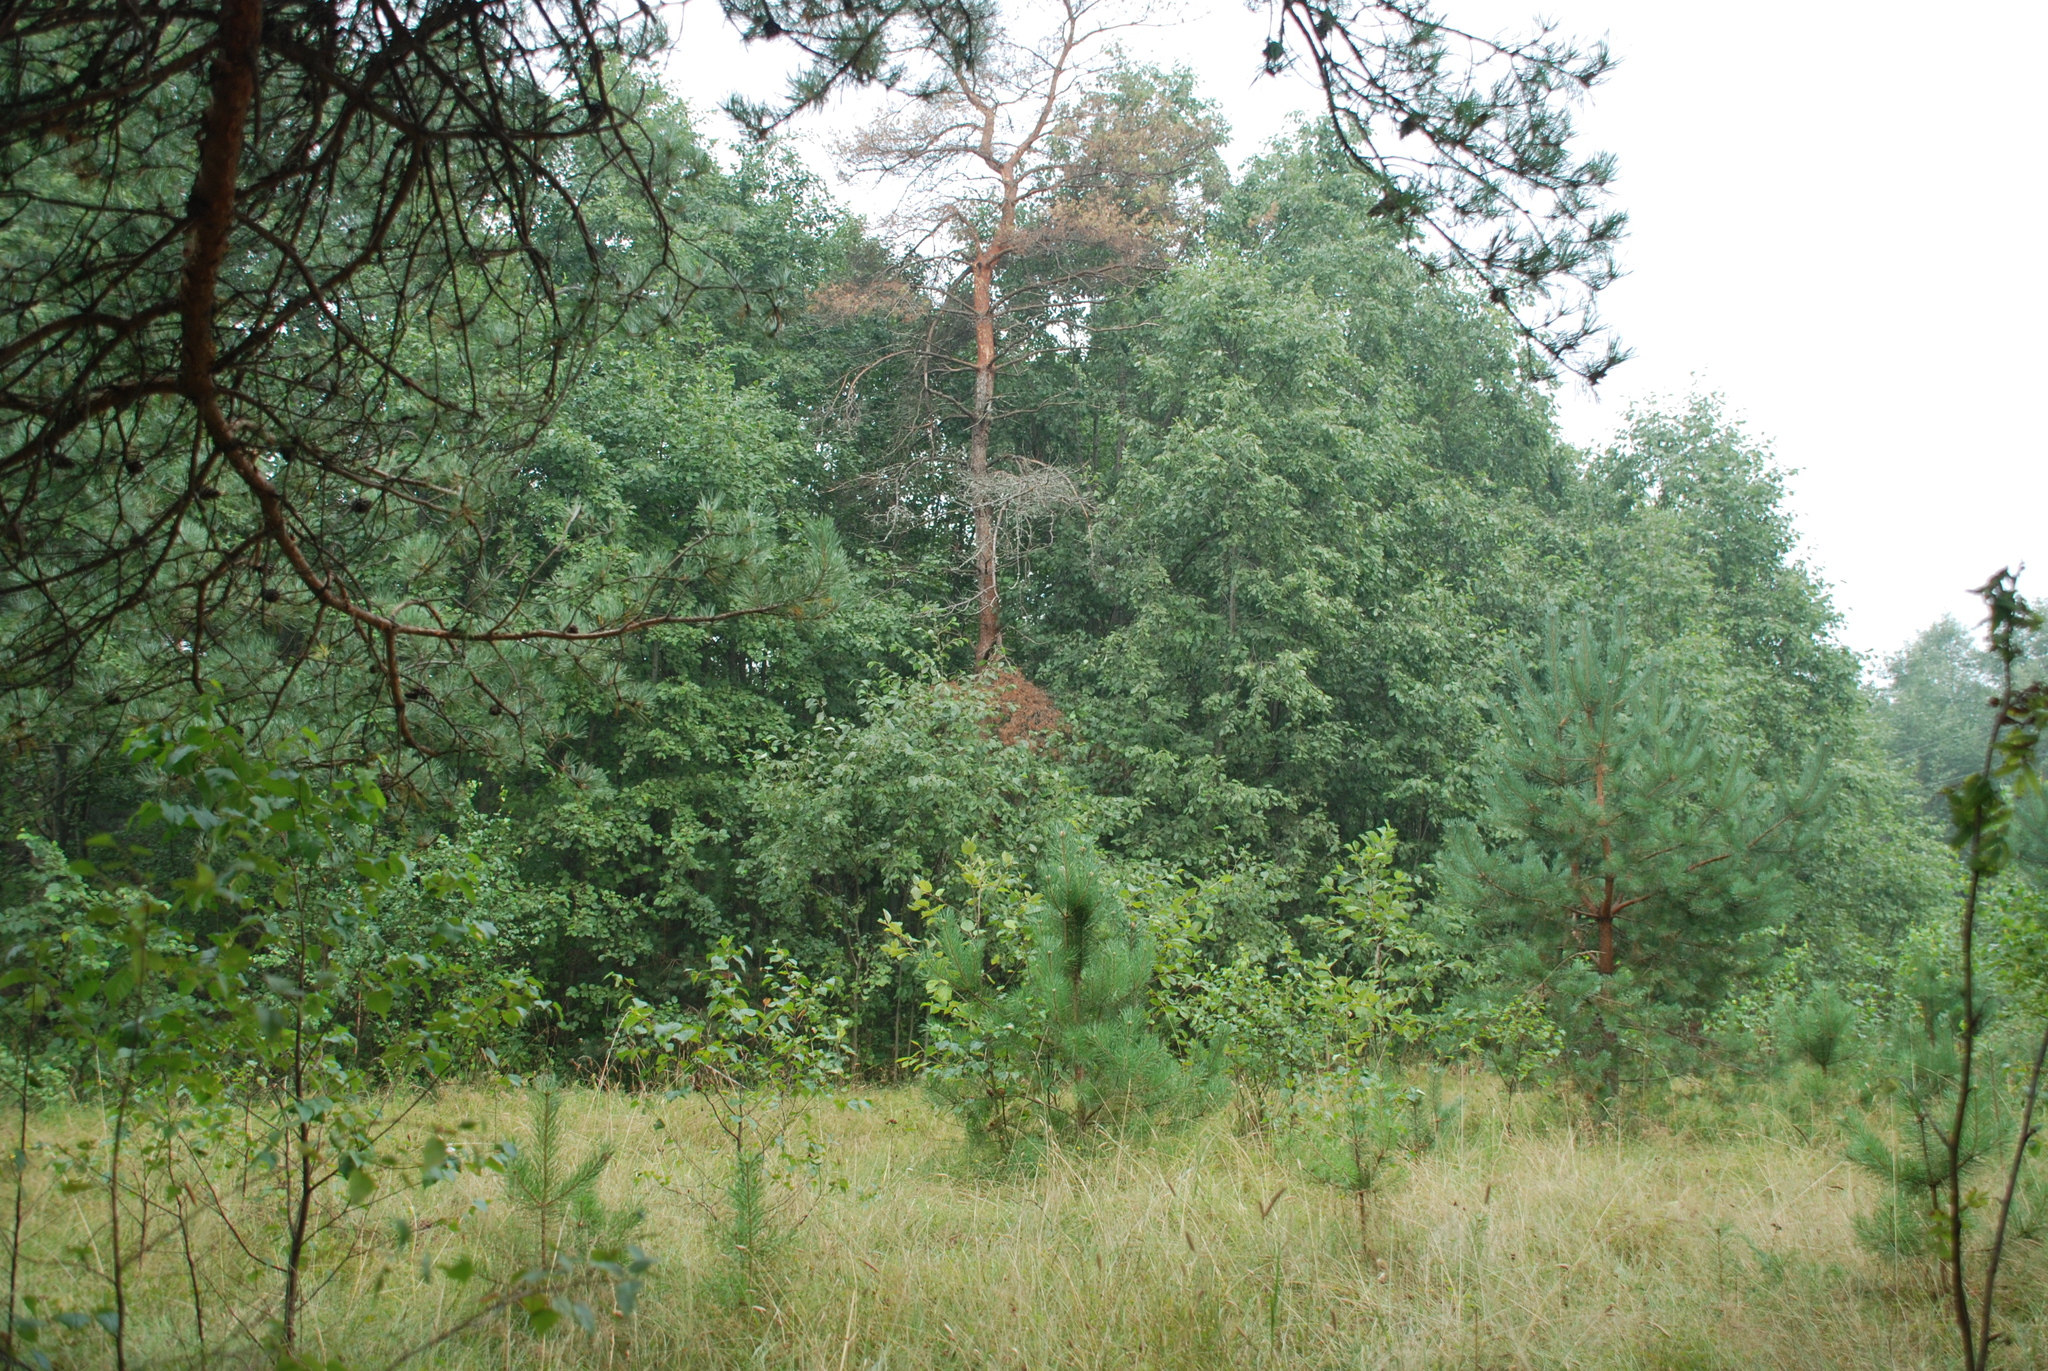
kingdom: Plantae
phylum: Tracheophyta
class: Pinopsida
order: Pinales
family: Pinaceae
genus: Pinus
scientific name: Pinus sylvestris
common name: Scots pine
